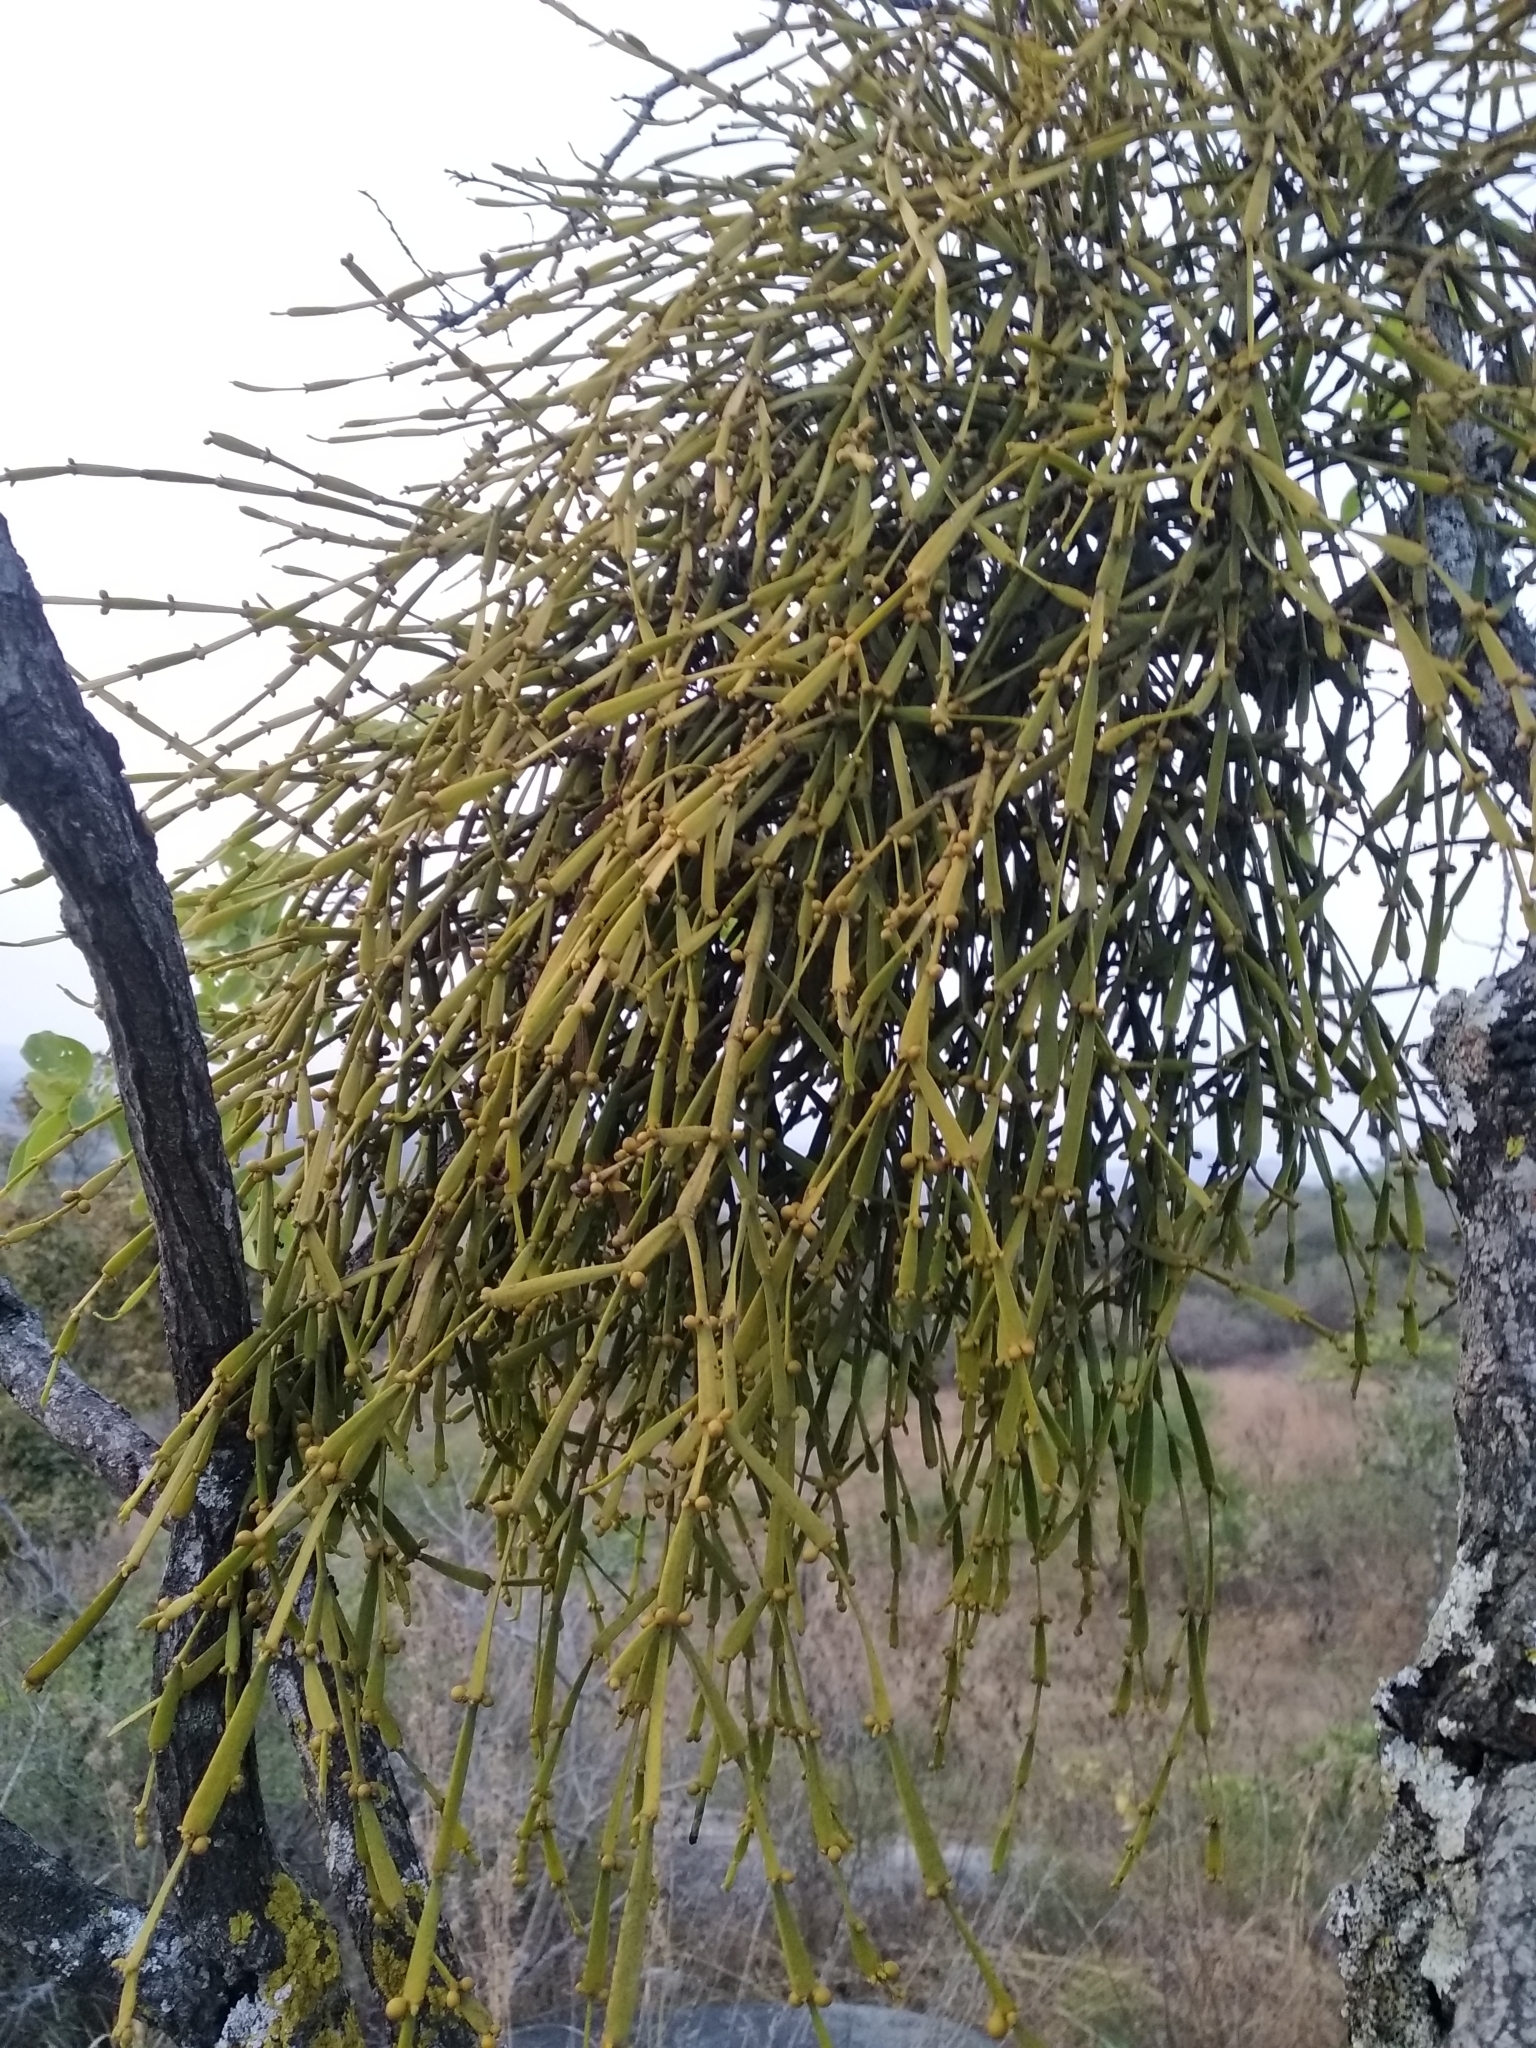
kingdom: Plantae
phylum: Tracheophyta
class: Magnoliopsida
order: Santalales
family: Viscaceae
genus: Viscum
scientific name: Viscum articulatum
